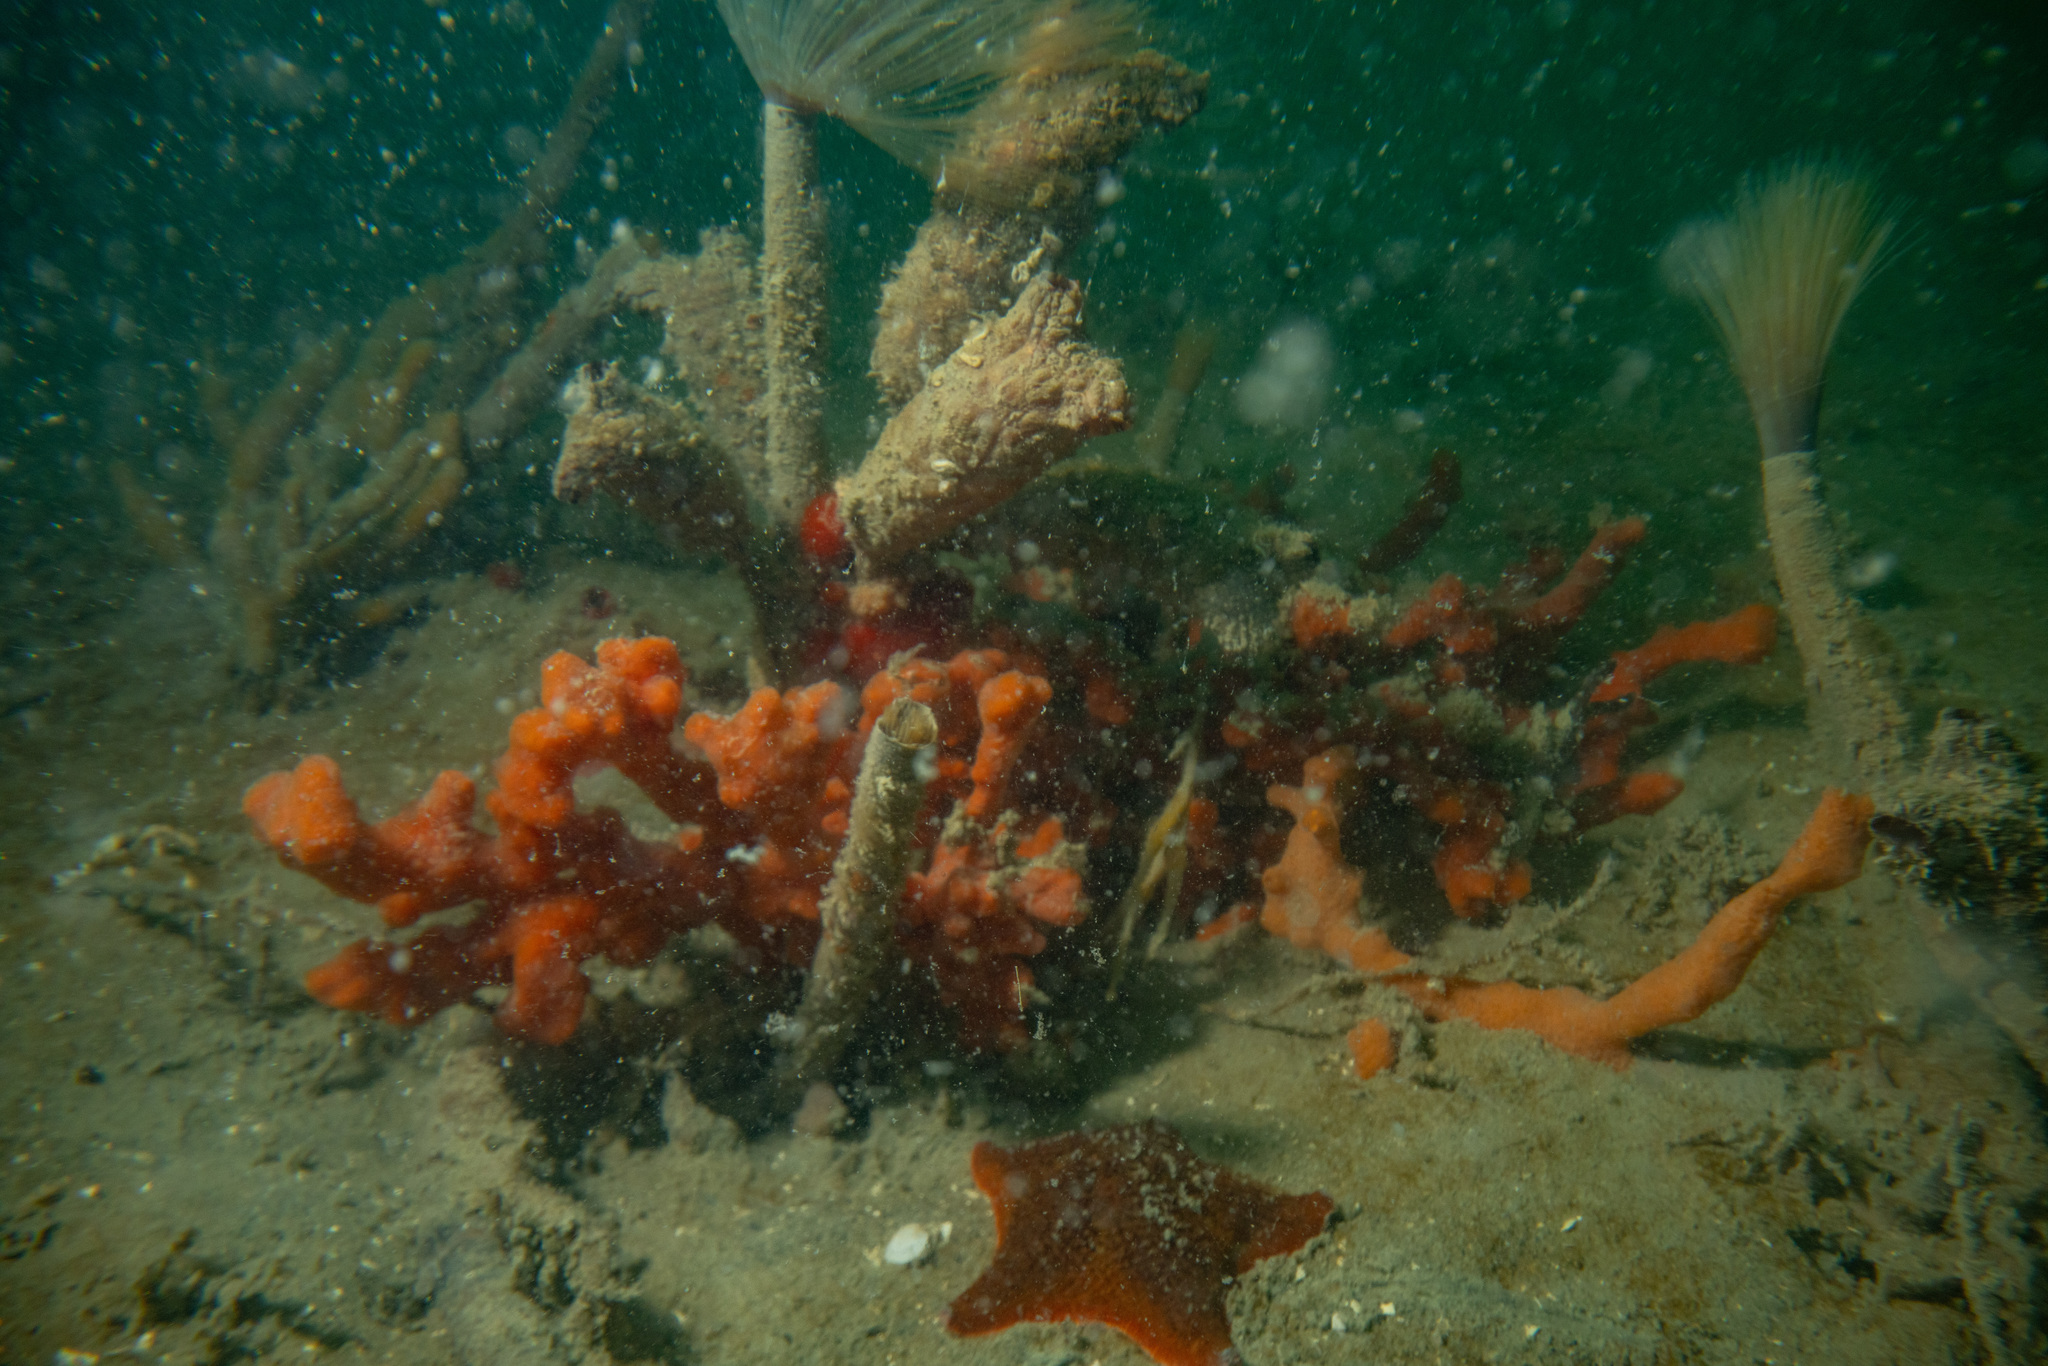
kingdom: Animalia
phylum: Chordata
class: Ascidiacea
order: Stolidobranchia
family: Styelidae
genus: Styela
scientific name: Styela clava
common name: Leathery sea squirt
